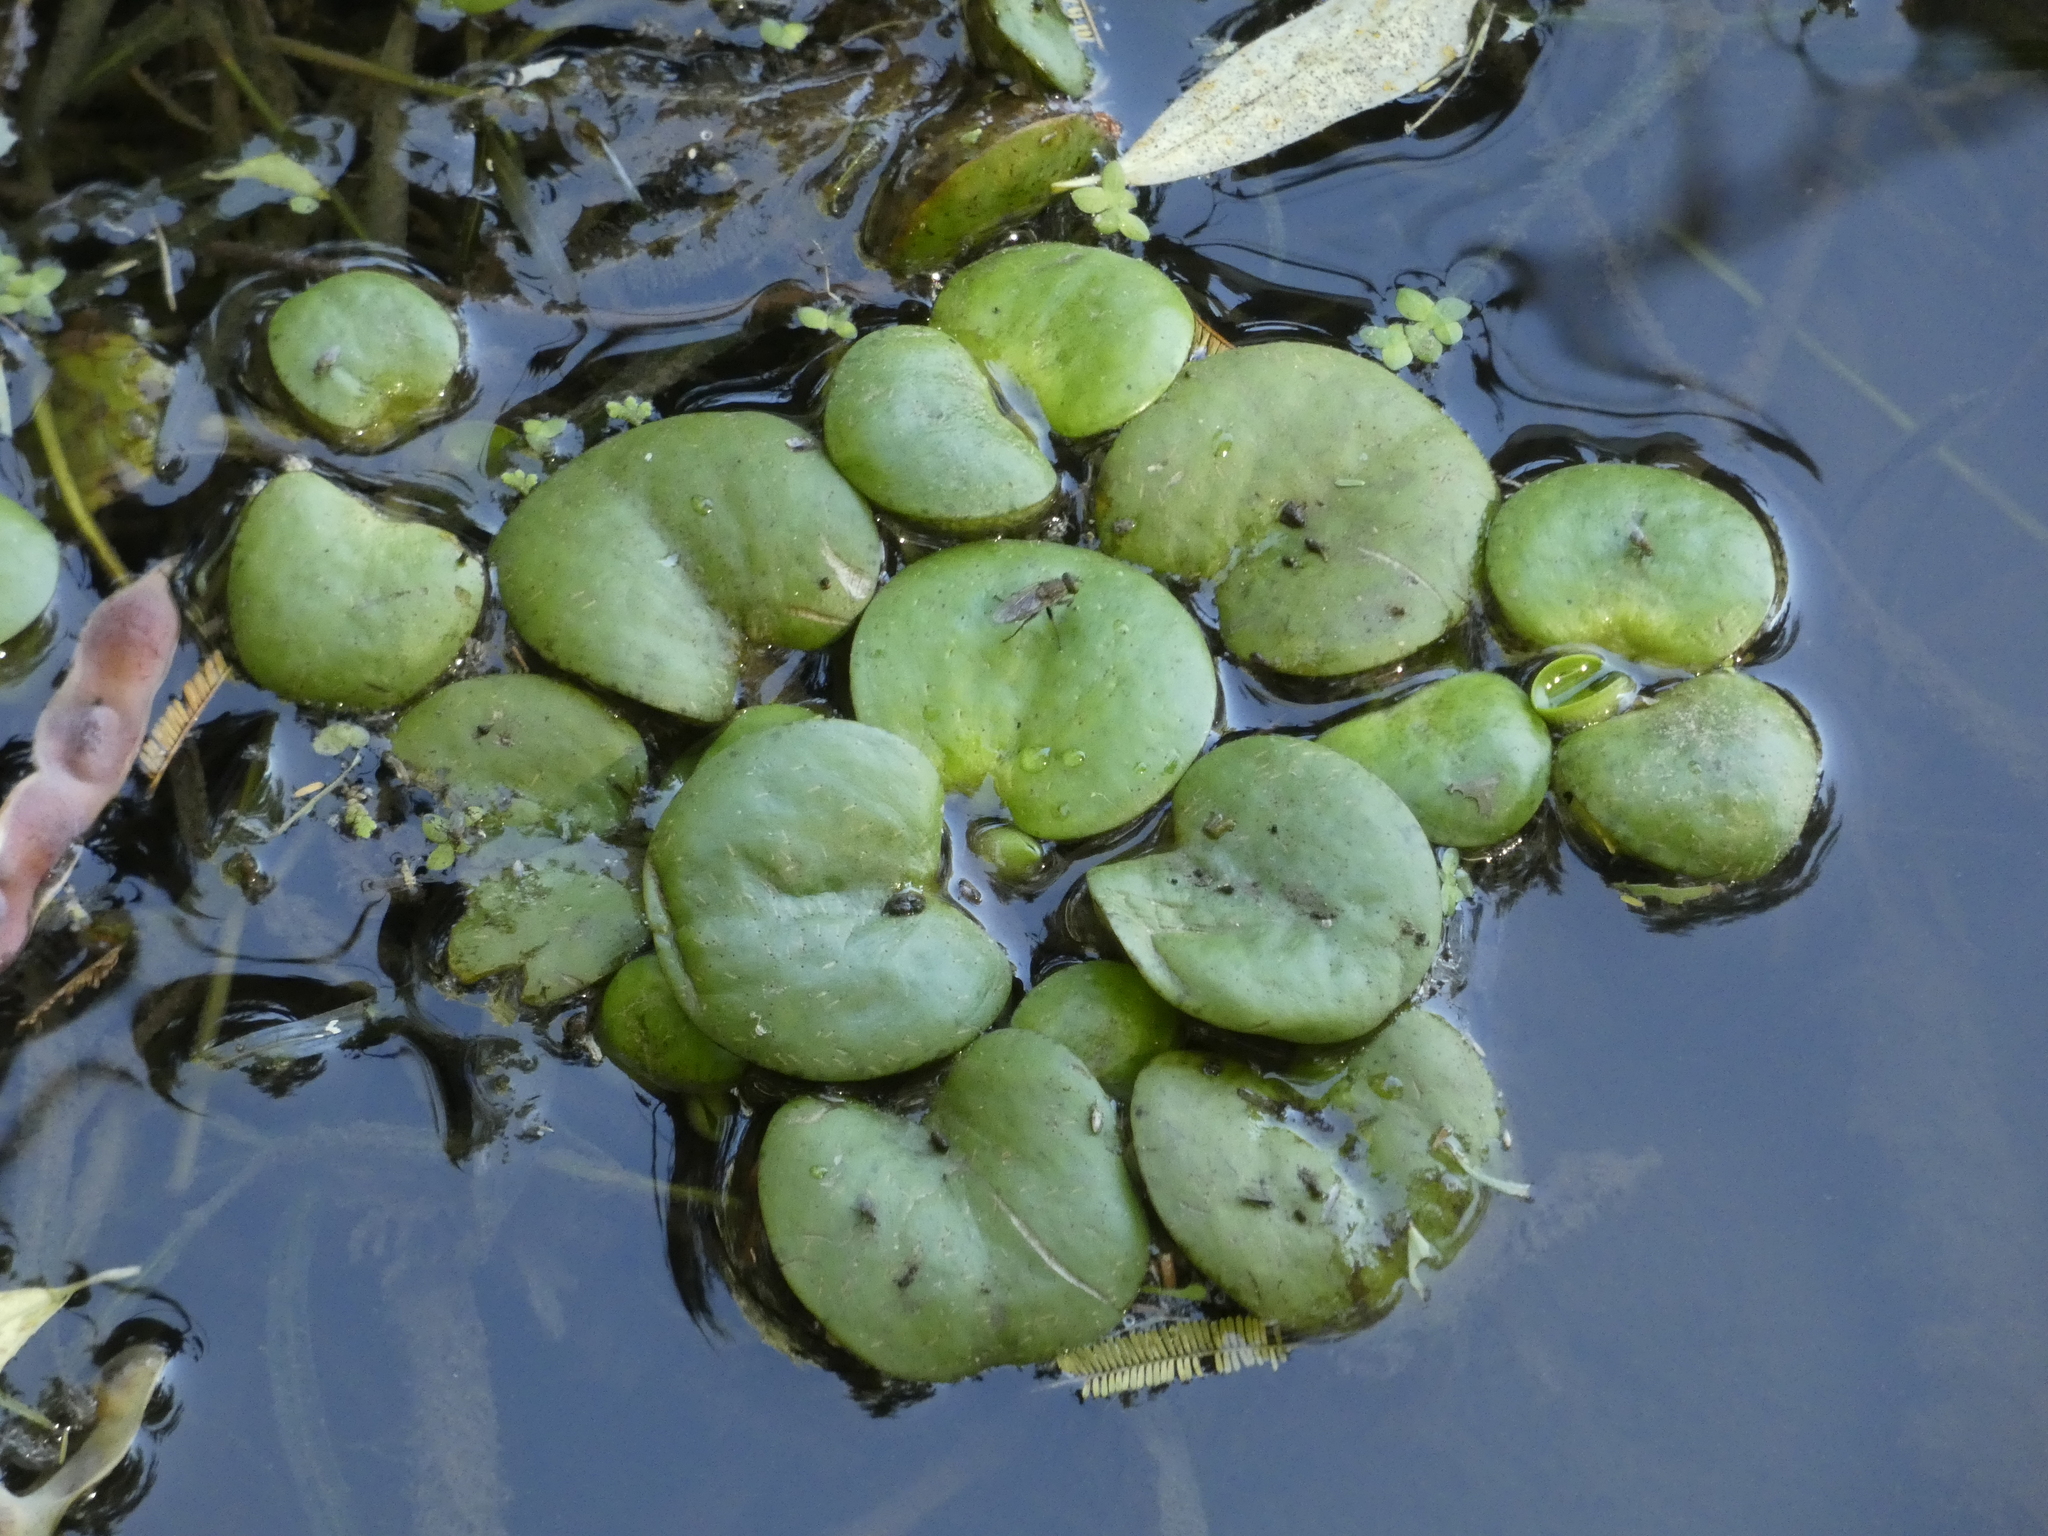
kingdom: Plantae
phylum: Tracheophyta
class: Liliopsida
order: Alismatales
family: Hydrocharitaceae
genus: Hydrocharis
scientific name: Hydrocharis laevigata
